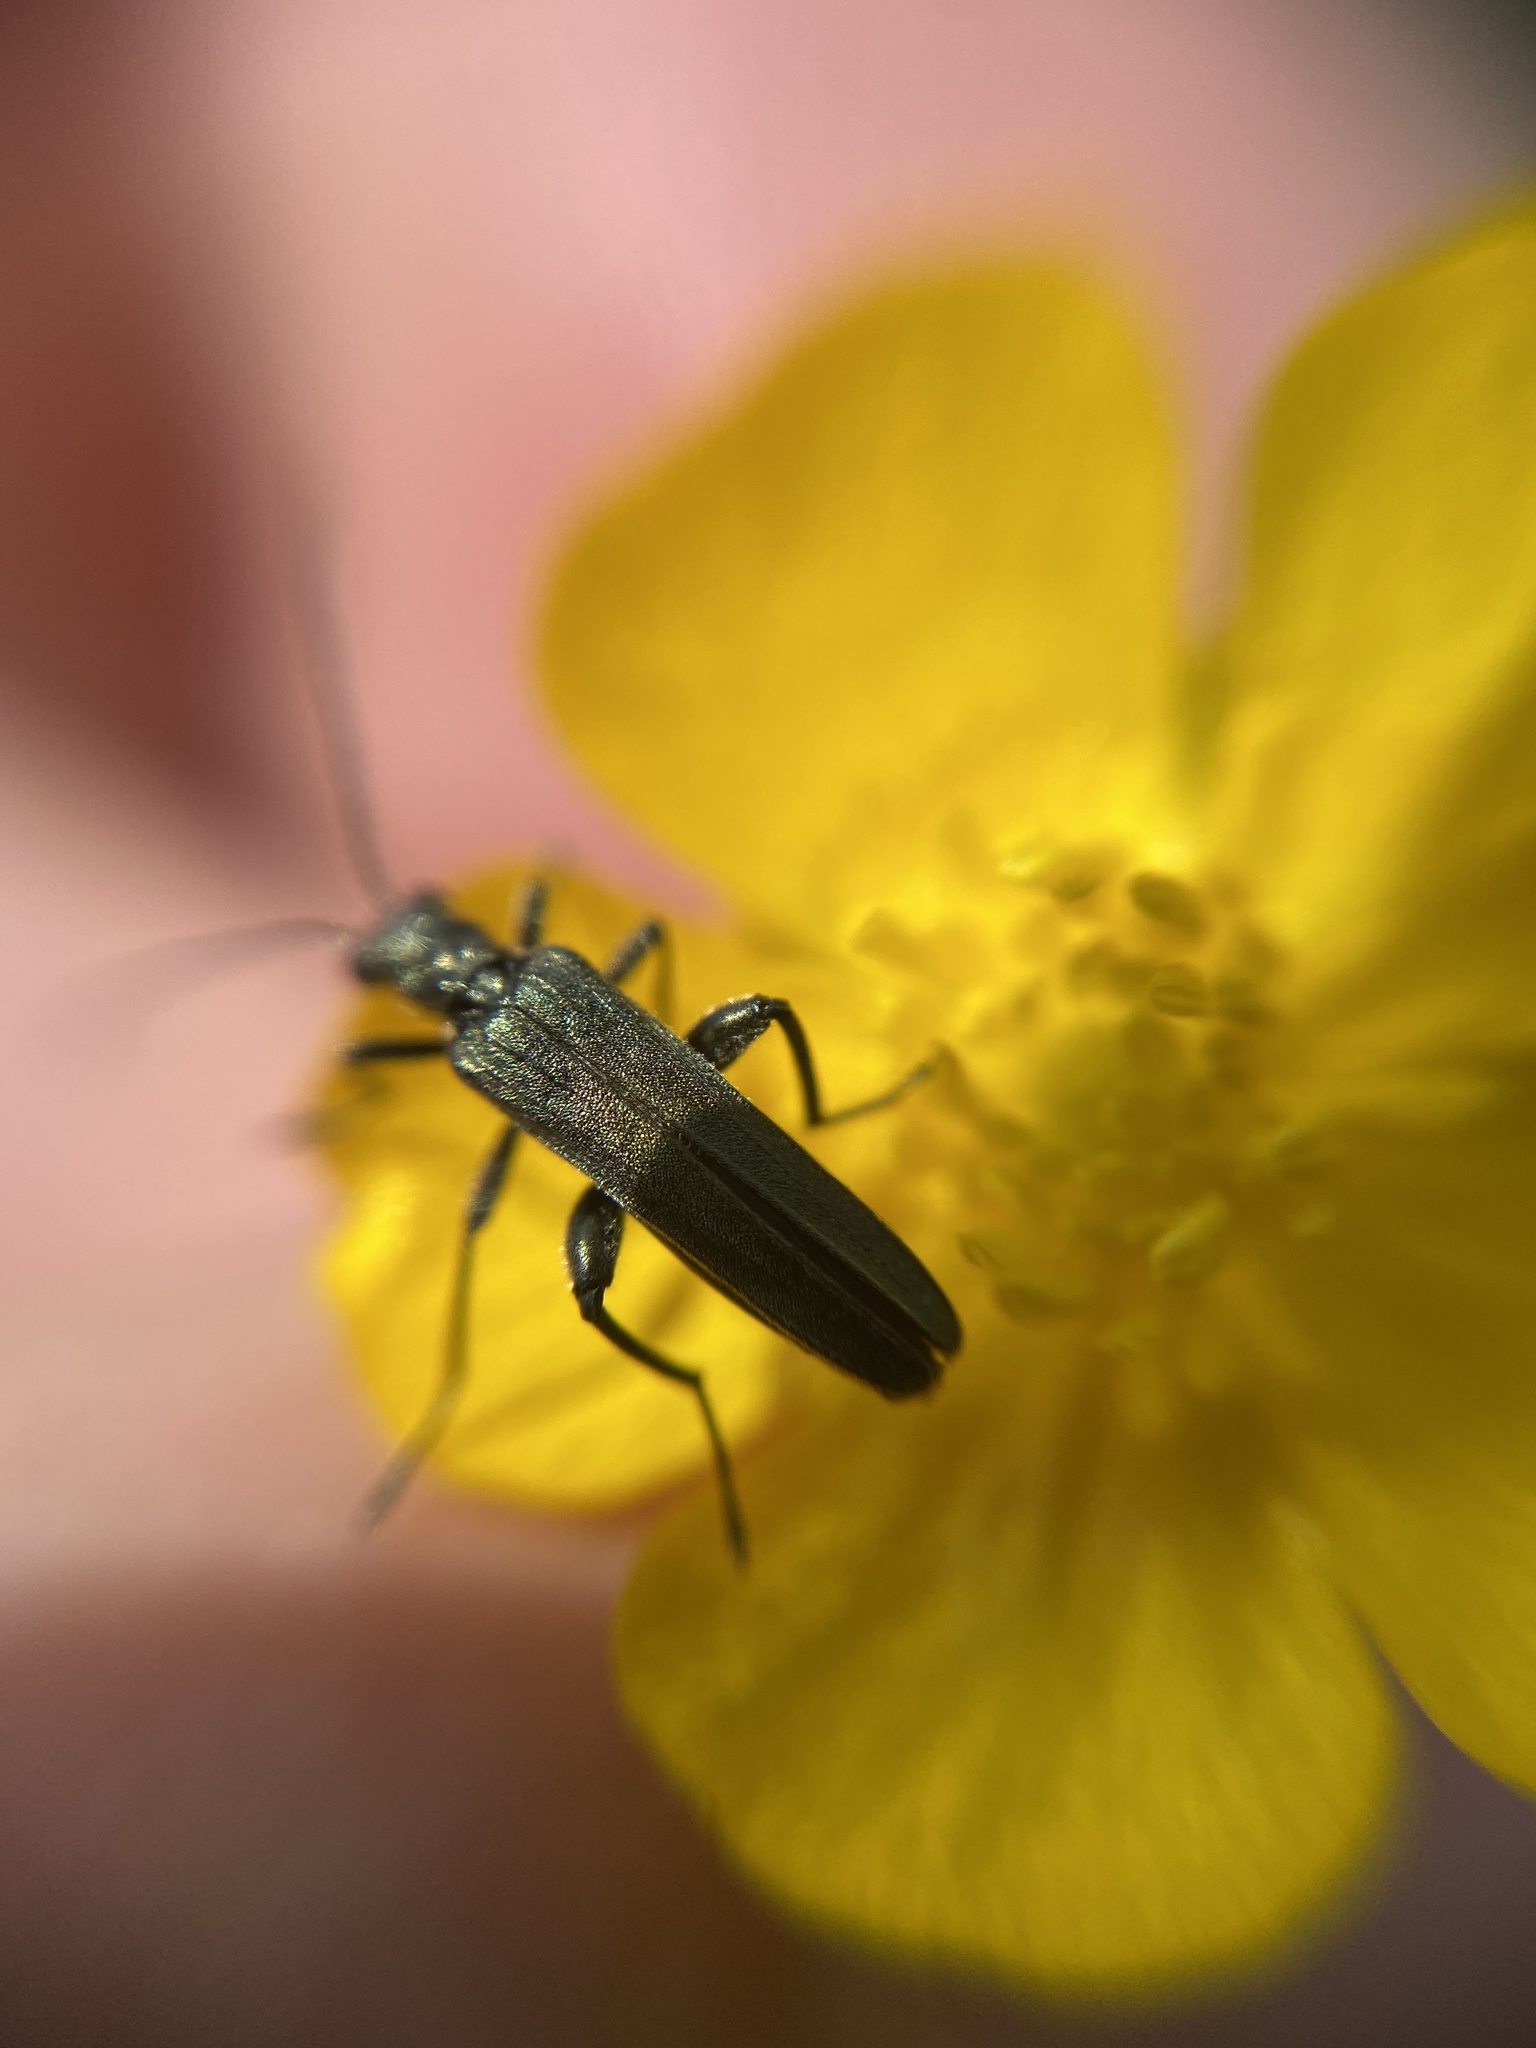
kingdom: Animalia
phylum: Arthropoda
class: Insecta
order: Coleoptera
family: Oedemeridae
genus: Oedemera
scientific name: Oedemera virescens
